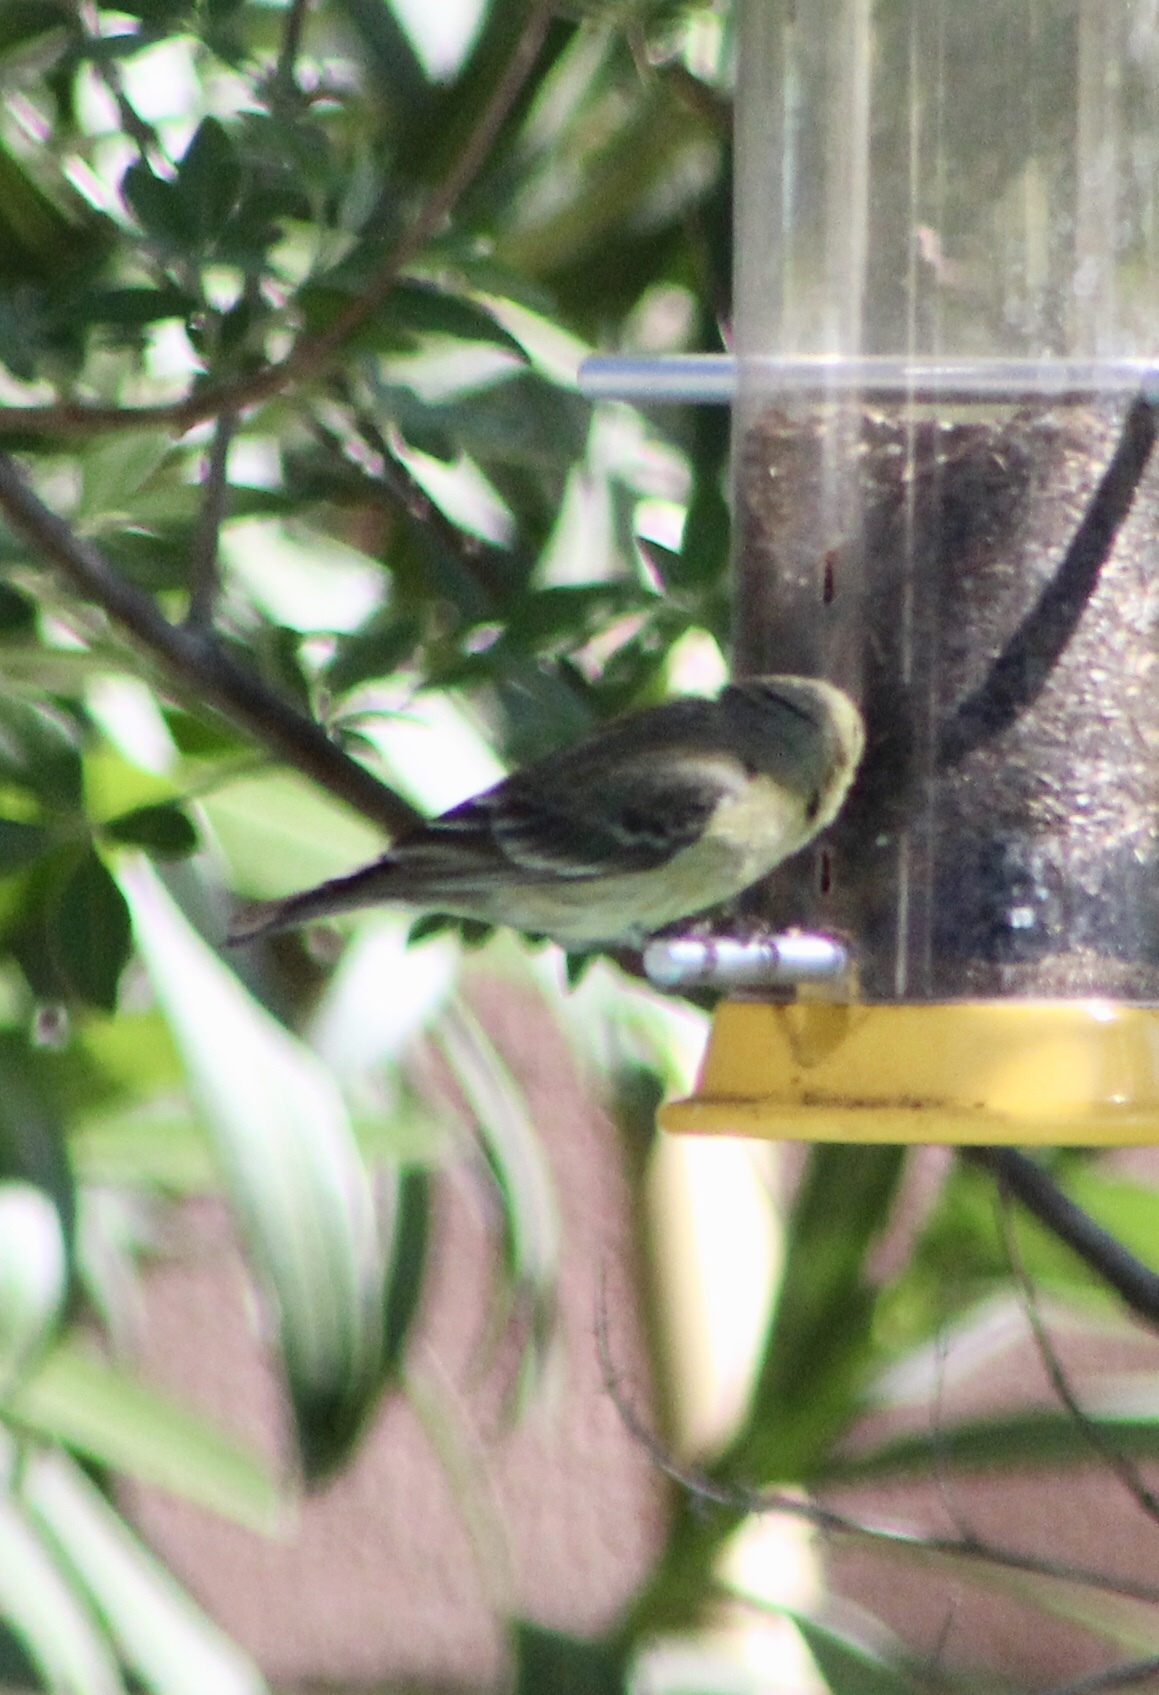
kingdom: Animalia
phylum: Chordata
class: Aves
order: Passeriformes
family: Fringillidae
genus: Spinus
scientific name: Spinus psaltria
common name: Lesser goldfinch
